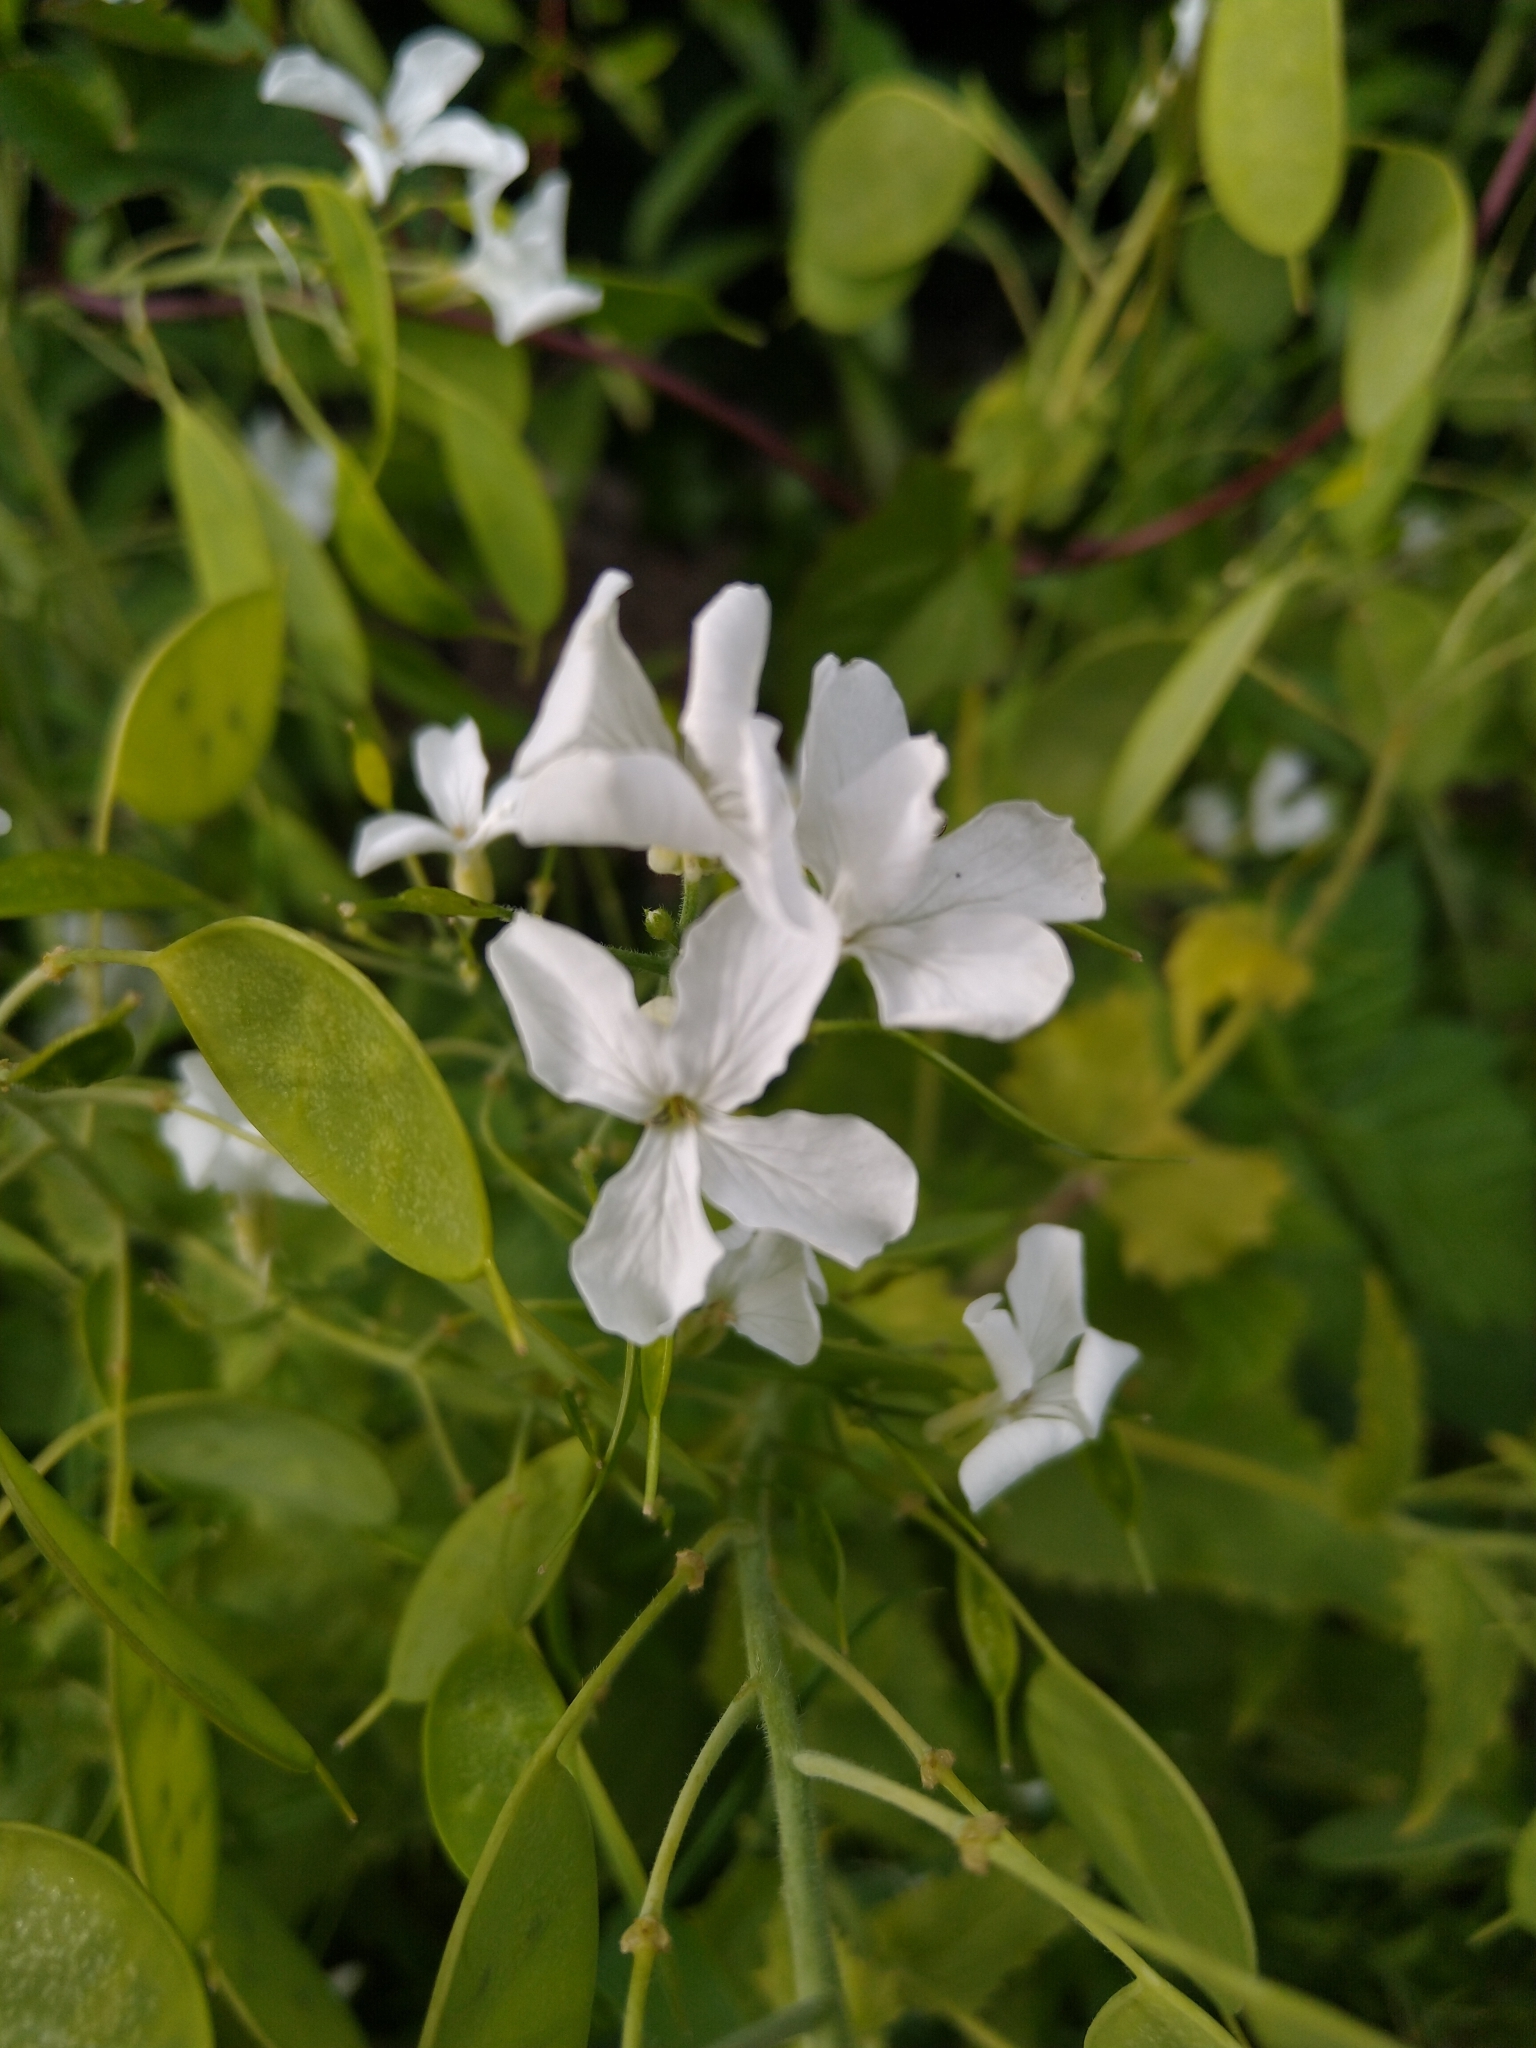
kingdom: Plantae
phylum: Tracheophyta
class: Magnoliopsida
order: Brassicales
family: Brassicaceae
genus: Lunaria
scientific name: Lunaria annua
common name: Honesty
